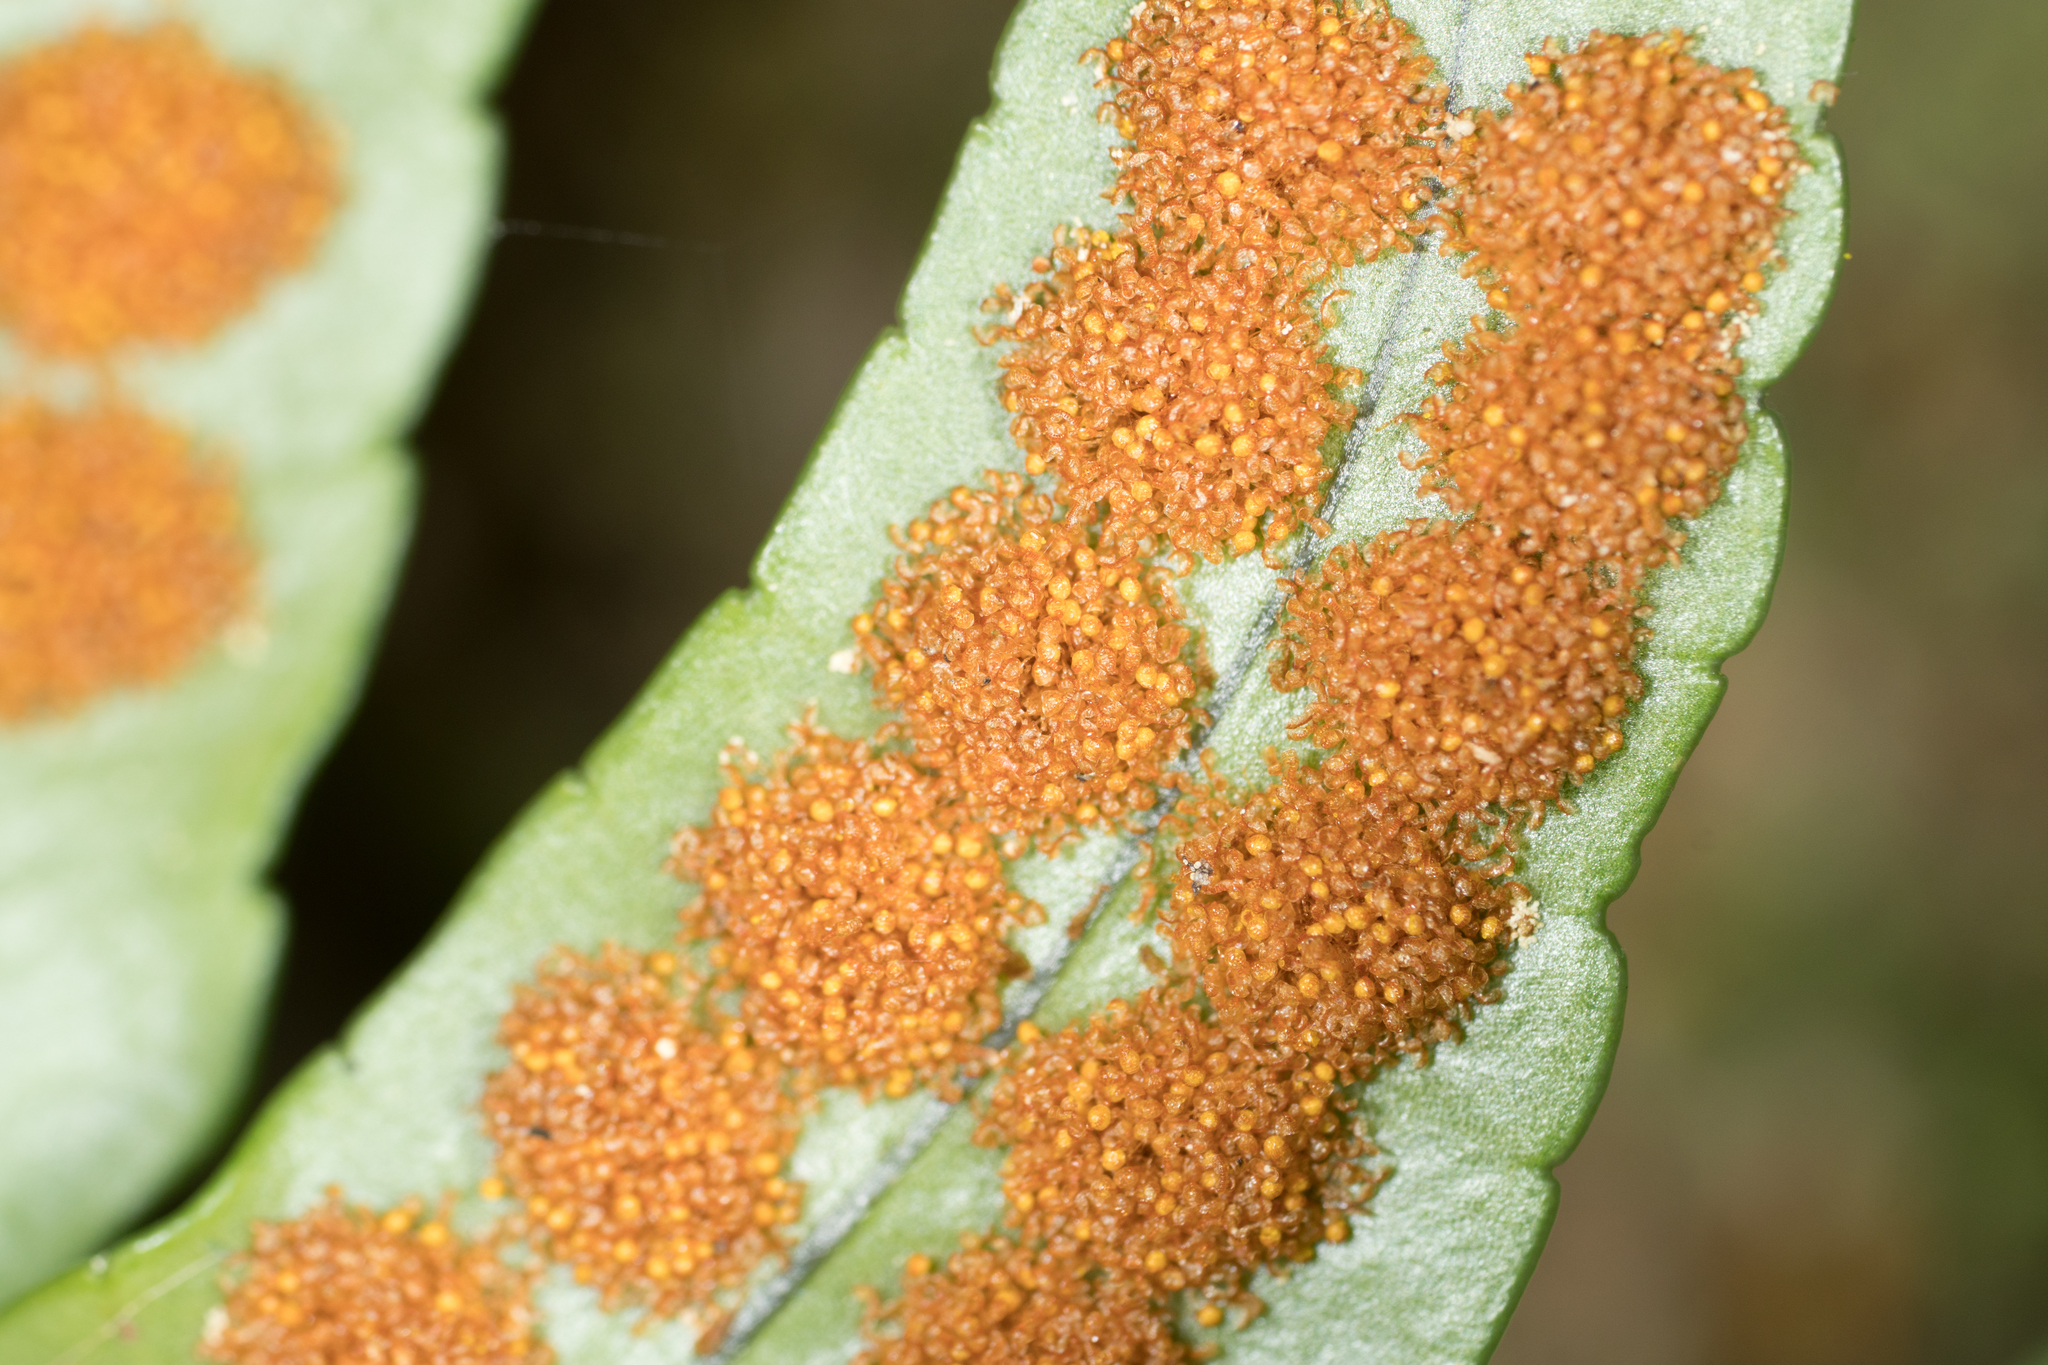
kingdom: Plantae
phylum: Tracheophyta
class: Polypodiopsida
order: Polypodiales
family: Polypodiaceae
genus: Polypodium
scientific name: Polypodium scouleri
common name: Scouler's polypody
